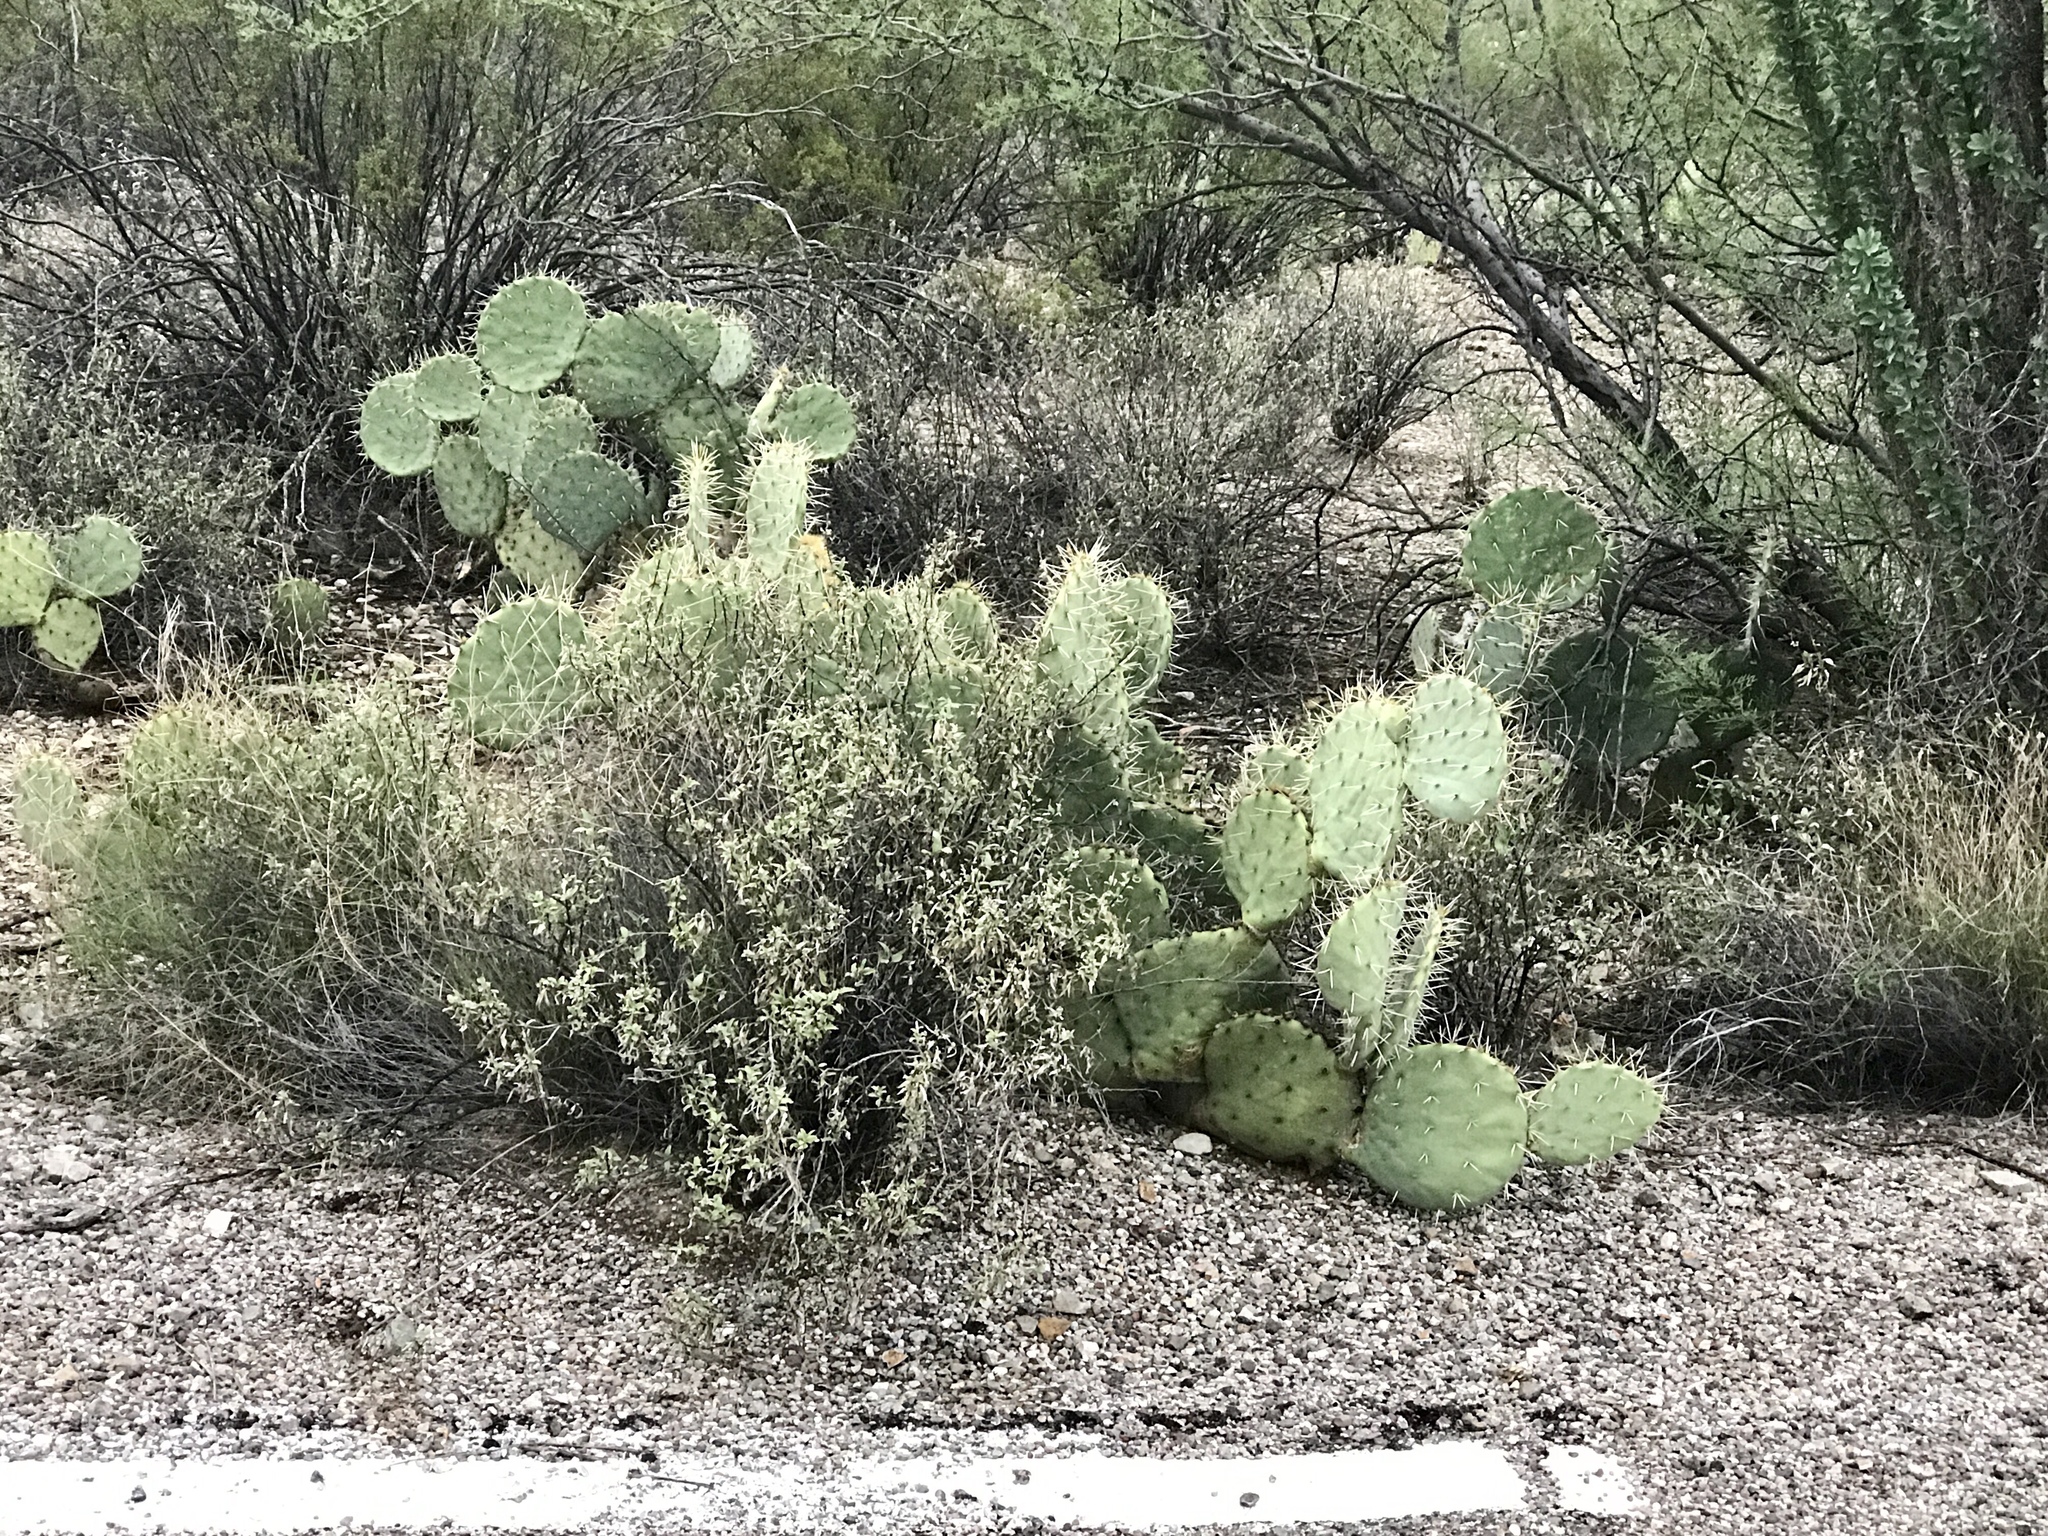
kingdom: Plantae
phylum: Tracheophyta
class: Magnoliopsida
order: Caryophyllales
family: Cactaceae
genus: Opuntia
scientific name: Opuntia engelmannii
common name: Cactus-apple
